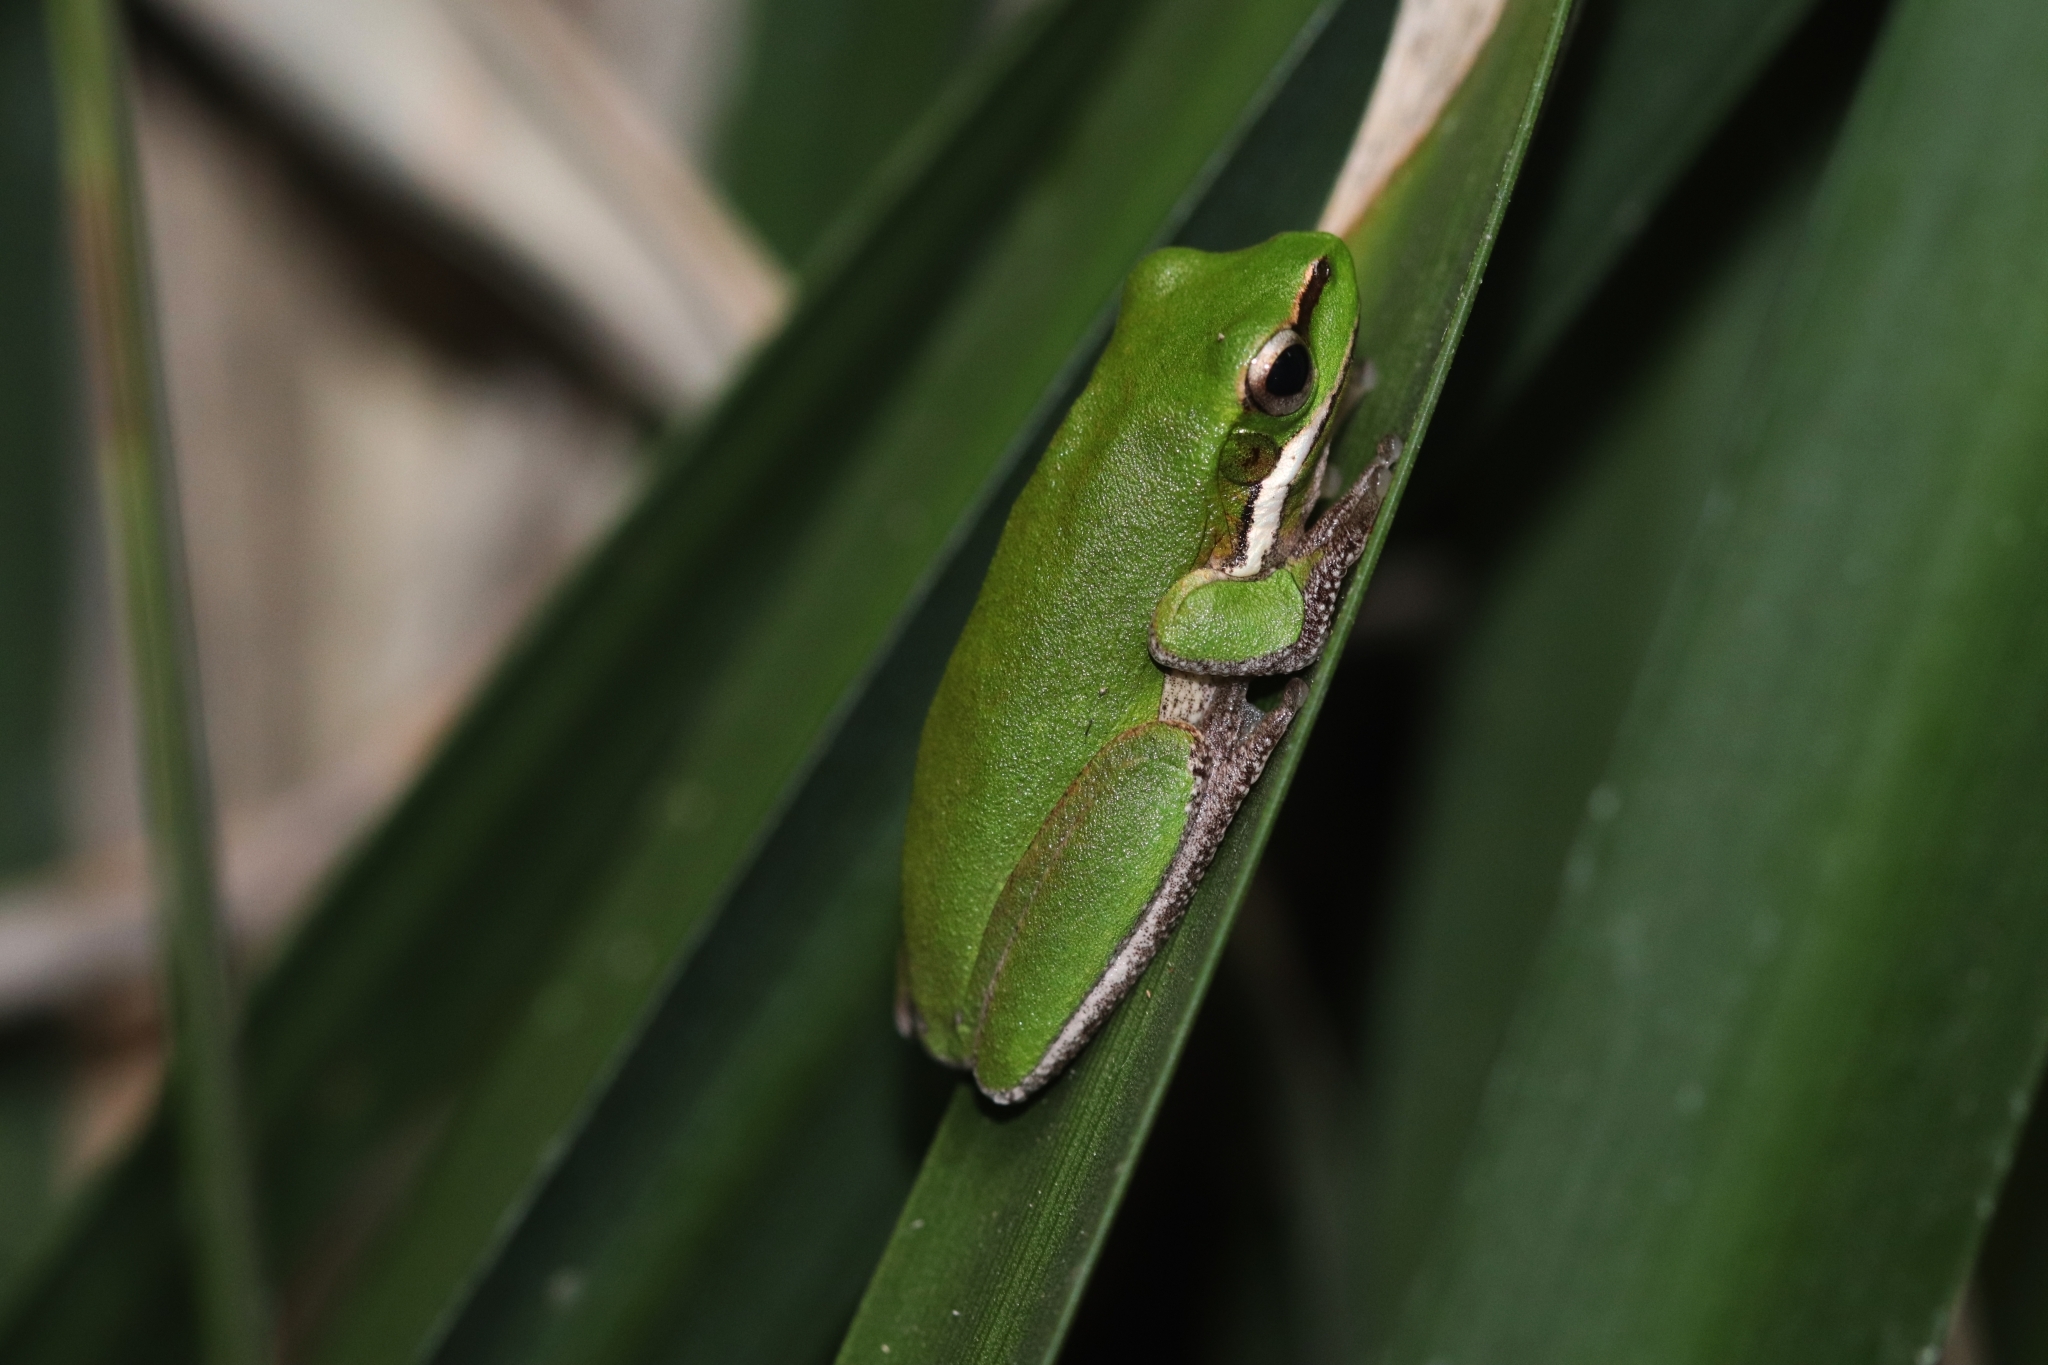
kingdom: Animalia
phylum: Chordata
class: Amphibia
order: Anura
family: Pelodryadidae
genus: Litoria
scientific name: Litoria fallax
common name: Eastern dwarf treefrog
